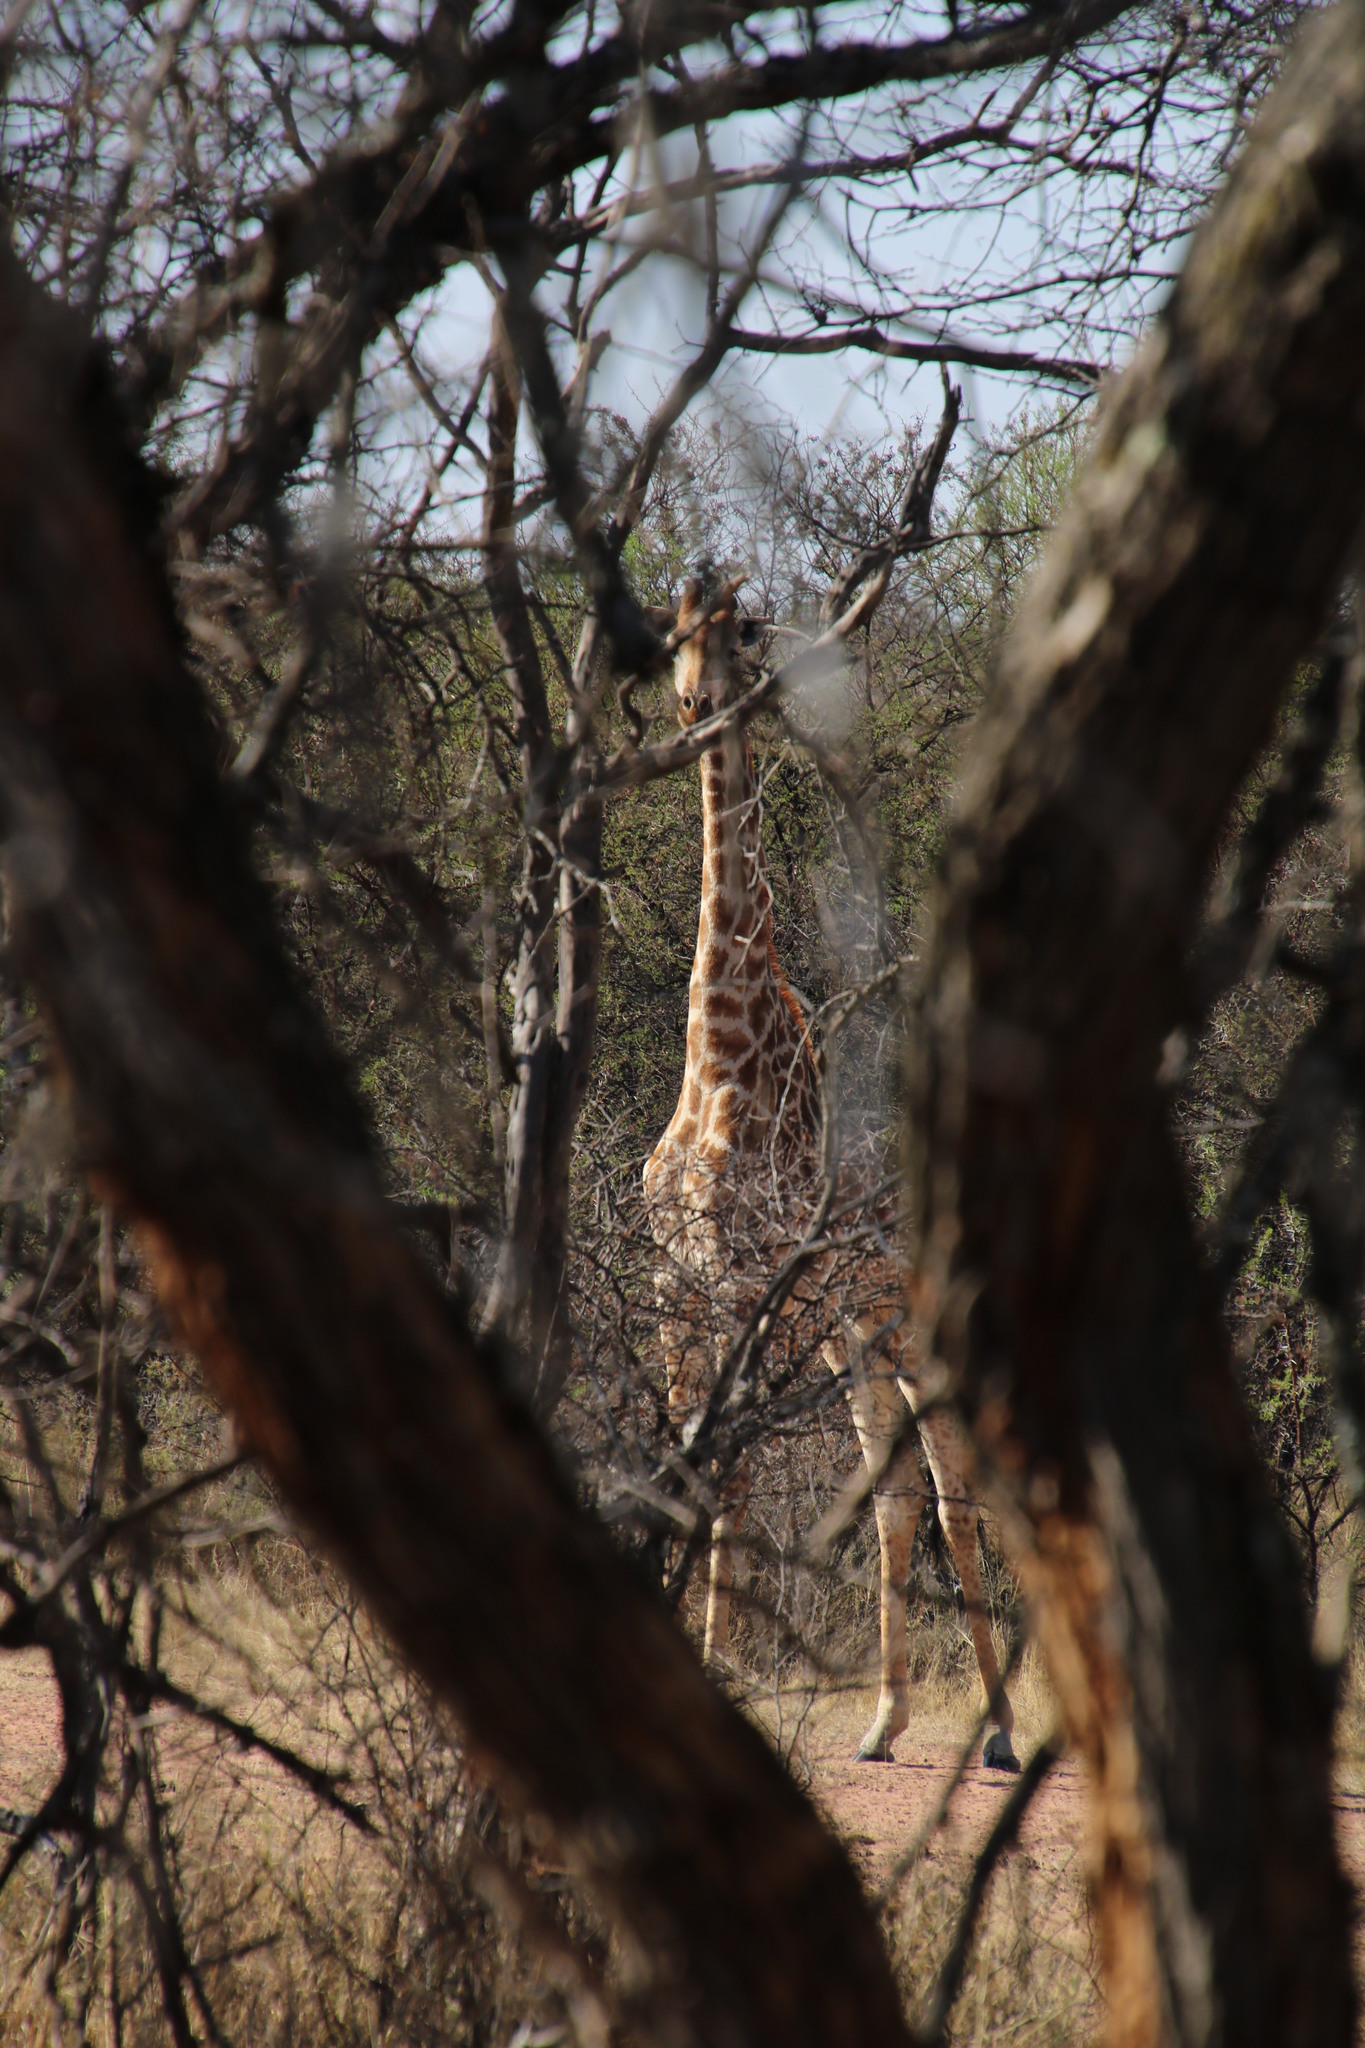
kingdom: Animalia
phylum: Chordata
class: Mammalia
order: Artiodactyla
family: Giraffidae
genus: Giraffa
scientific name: Giraffa giraffa
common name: Southern giraffe
